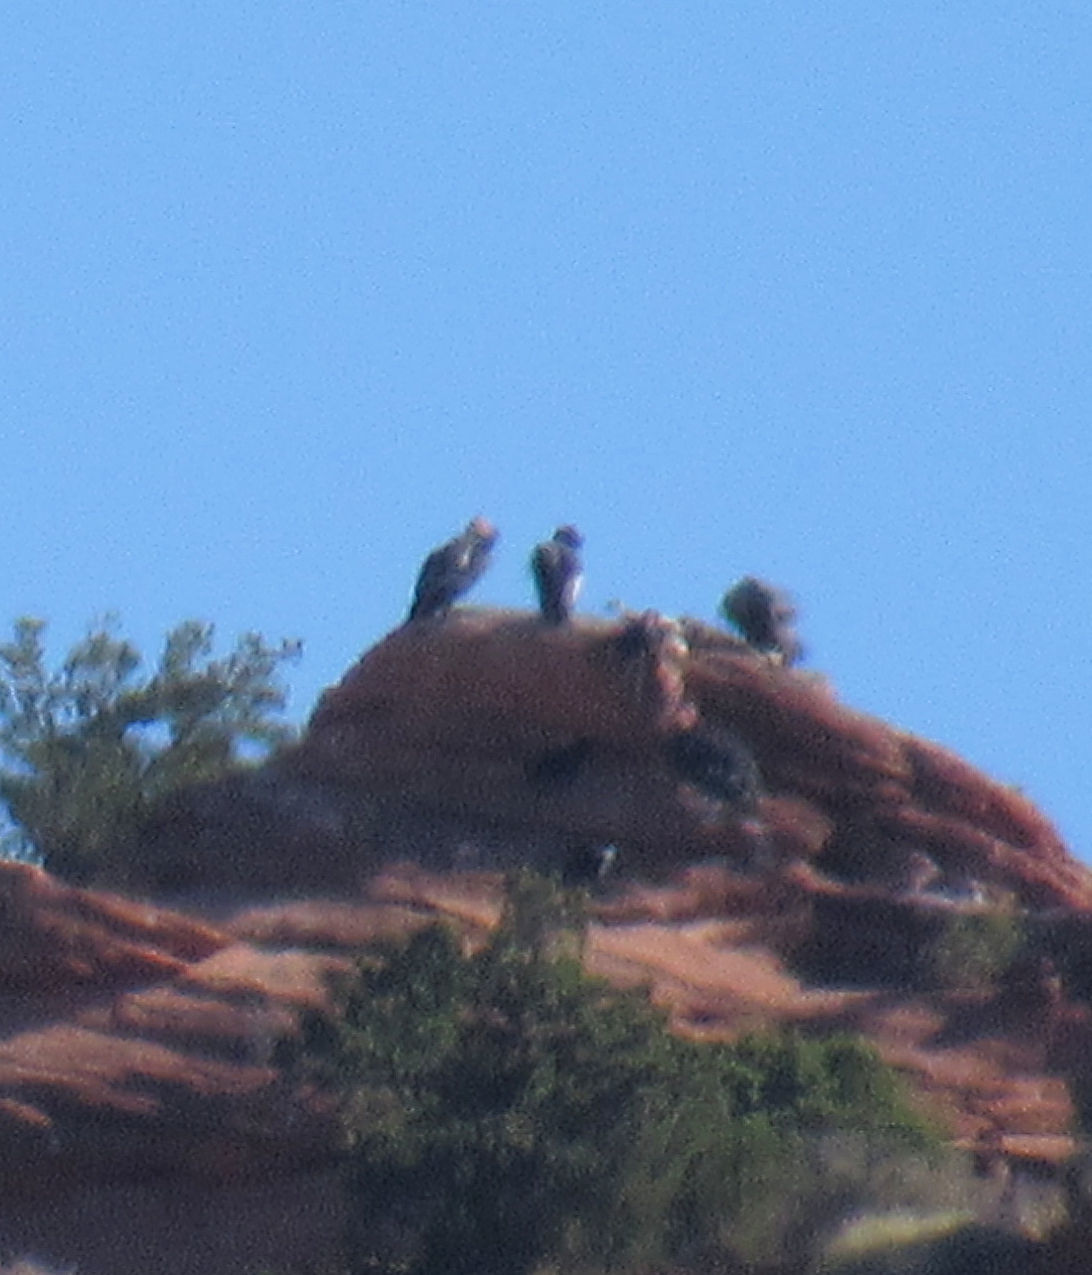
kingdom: Animalia
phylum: Chordata
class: Aves
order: Accipitriformes
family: Cathartidae
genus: Gymnogyps
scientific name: Gymnogyps californianus
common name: California condor
